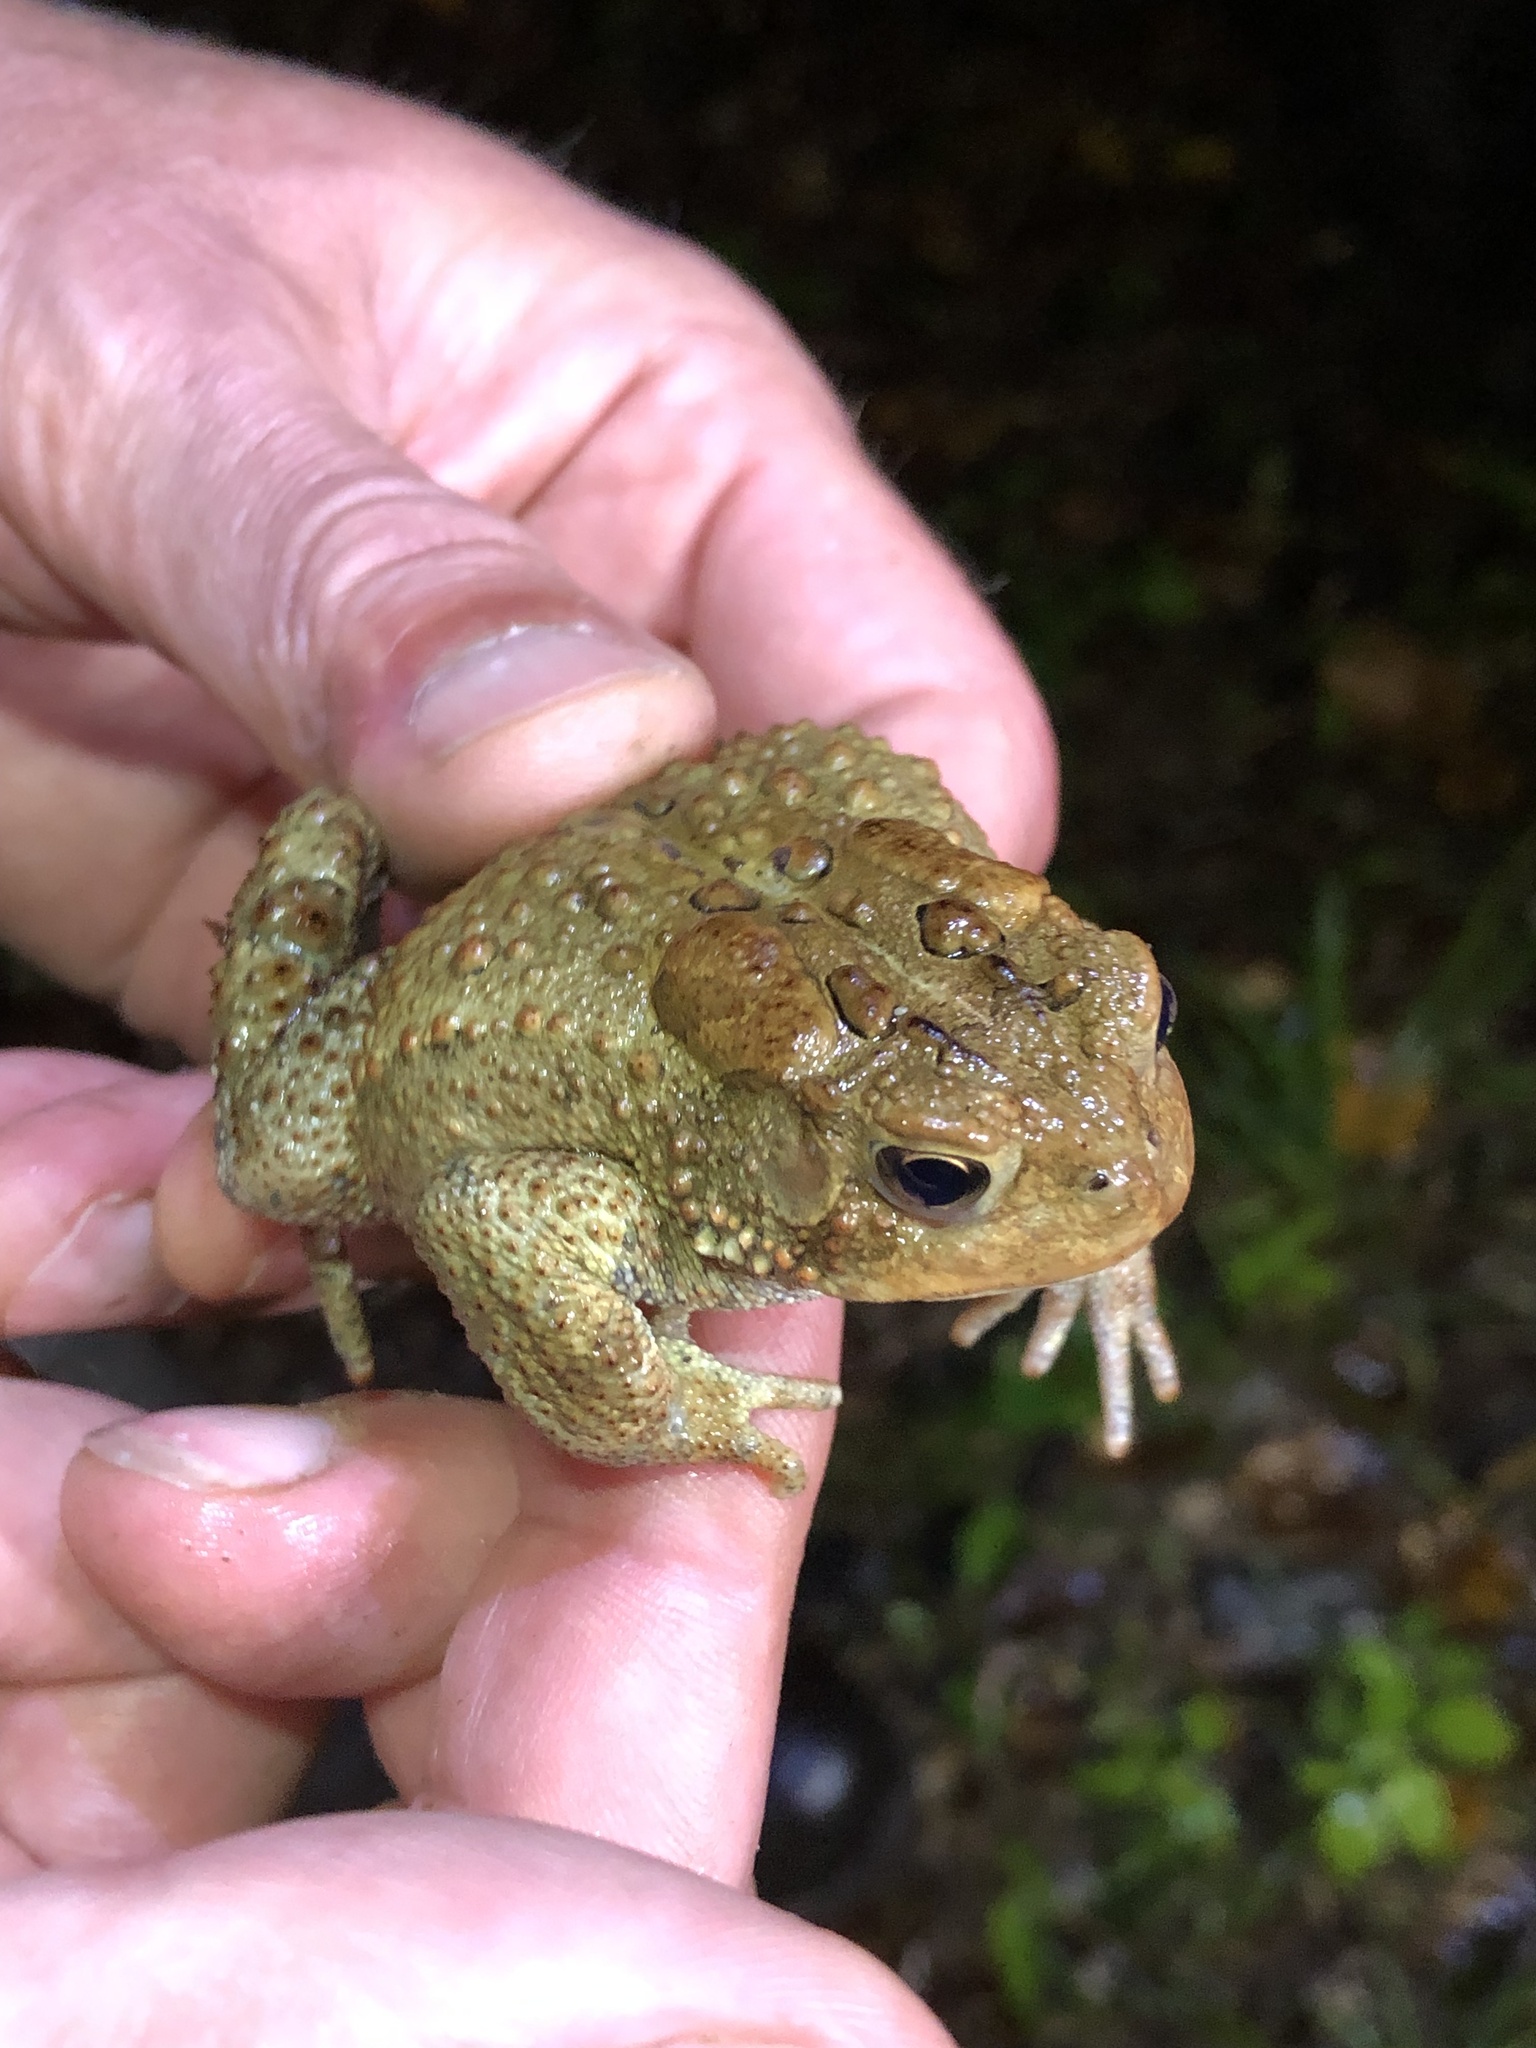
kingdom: Animalia
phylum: Chordata
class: Amphibia
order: Anura
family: Bufonidae
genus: Anaxyrus
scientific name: Anaxyrus americanus
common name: American toad
